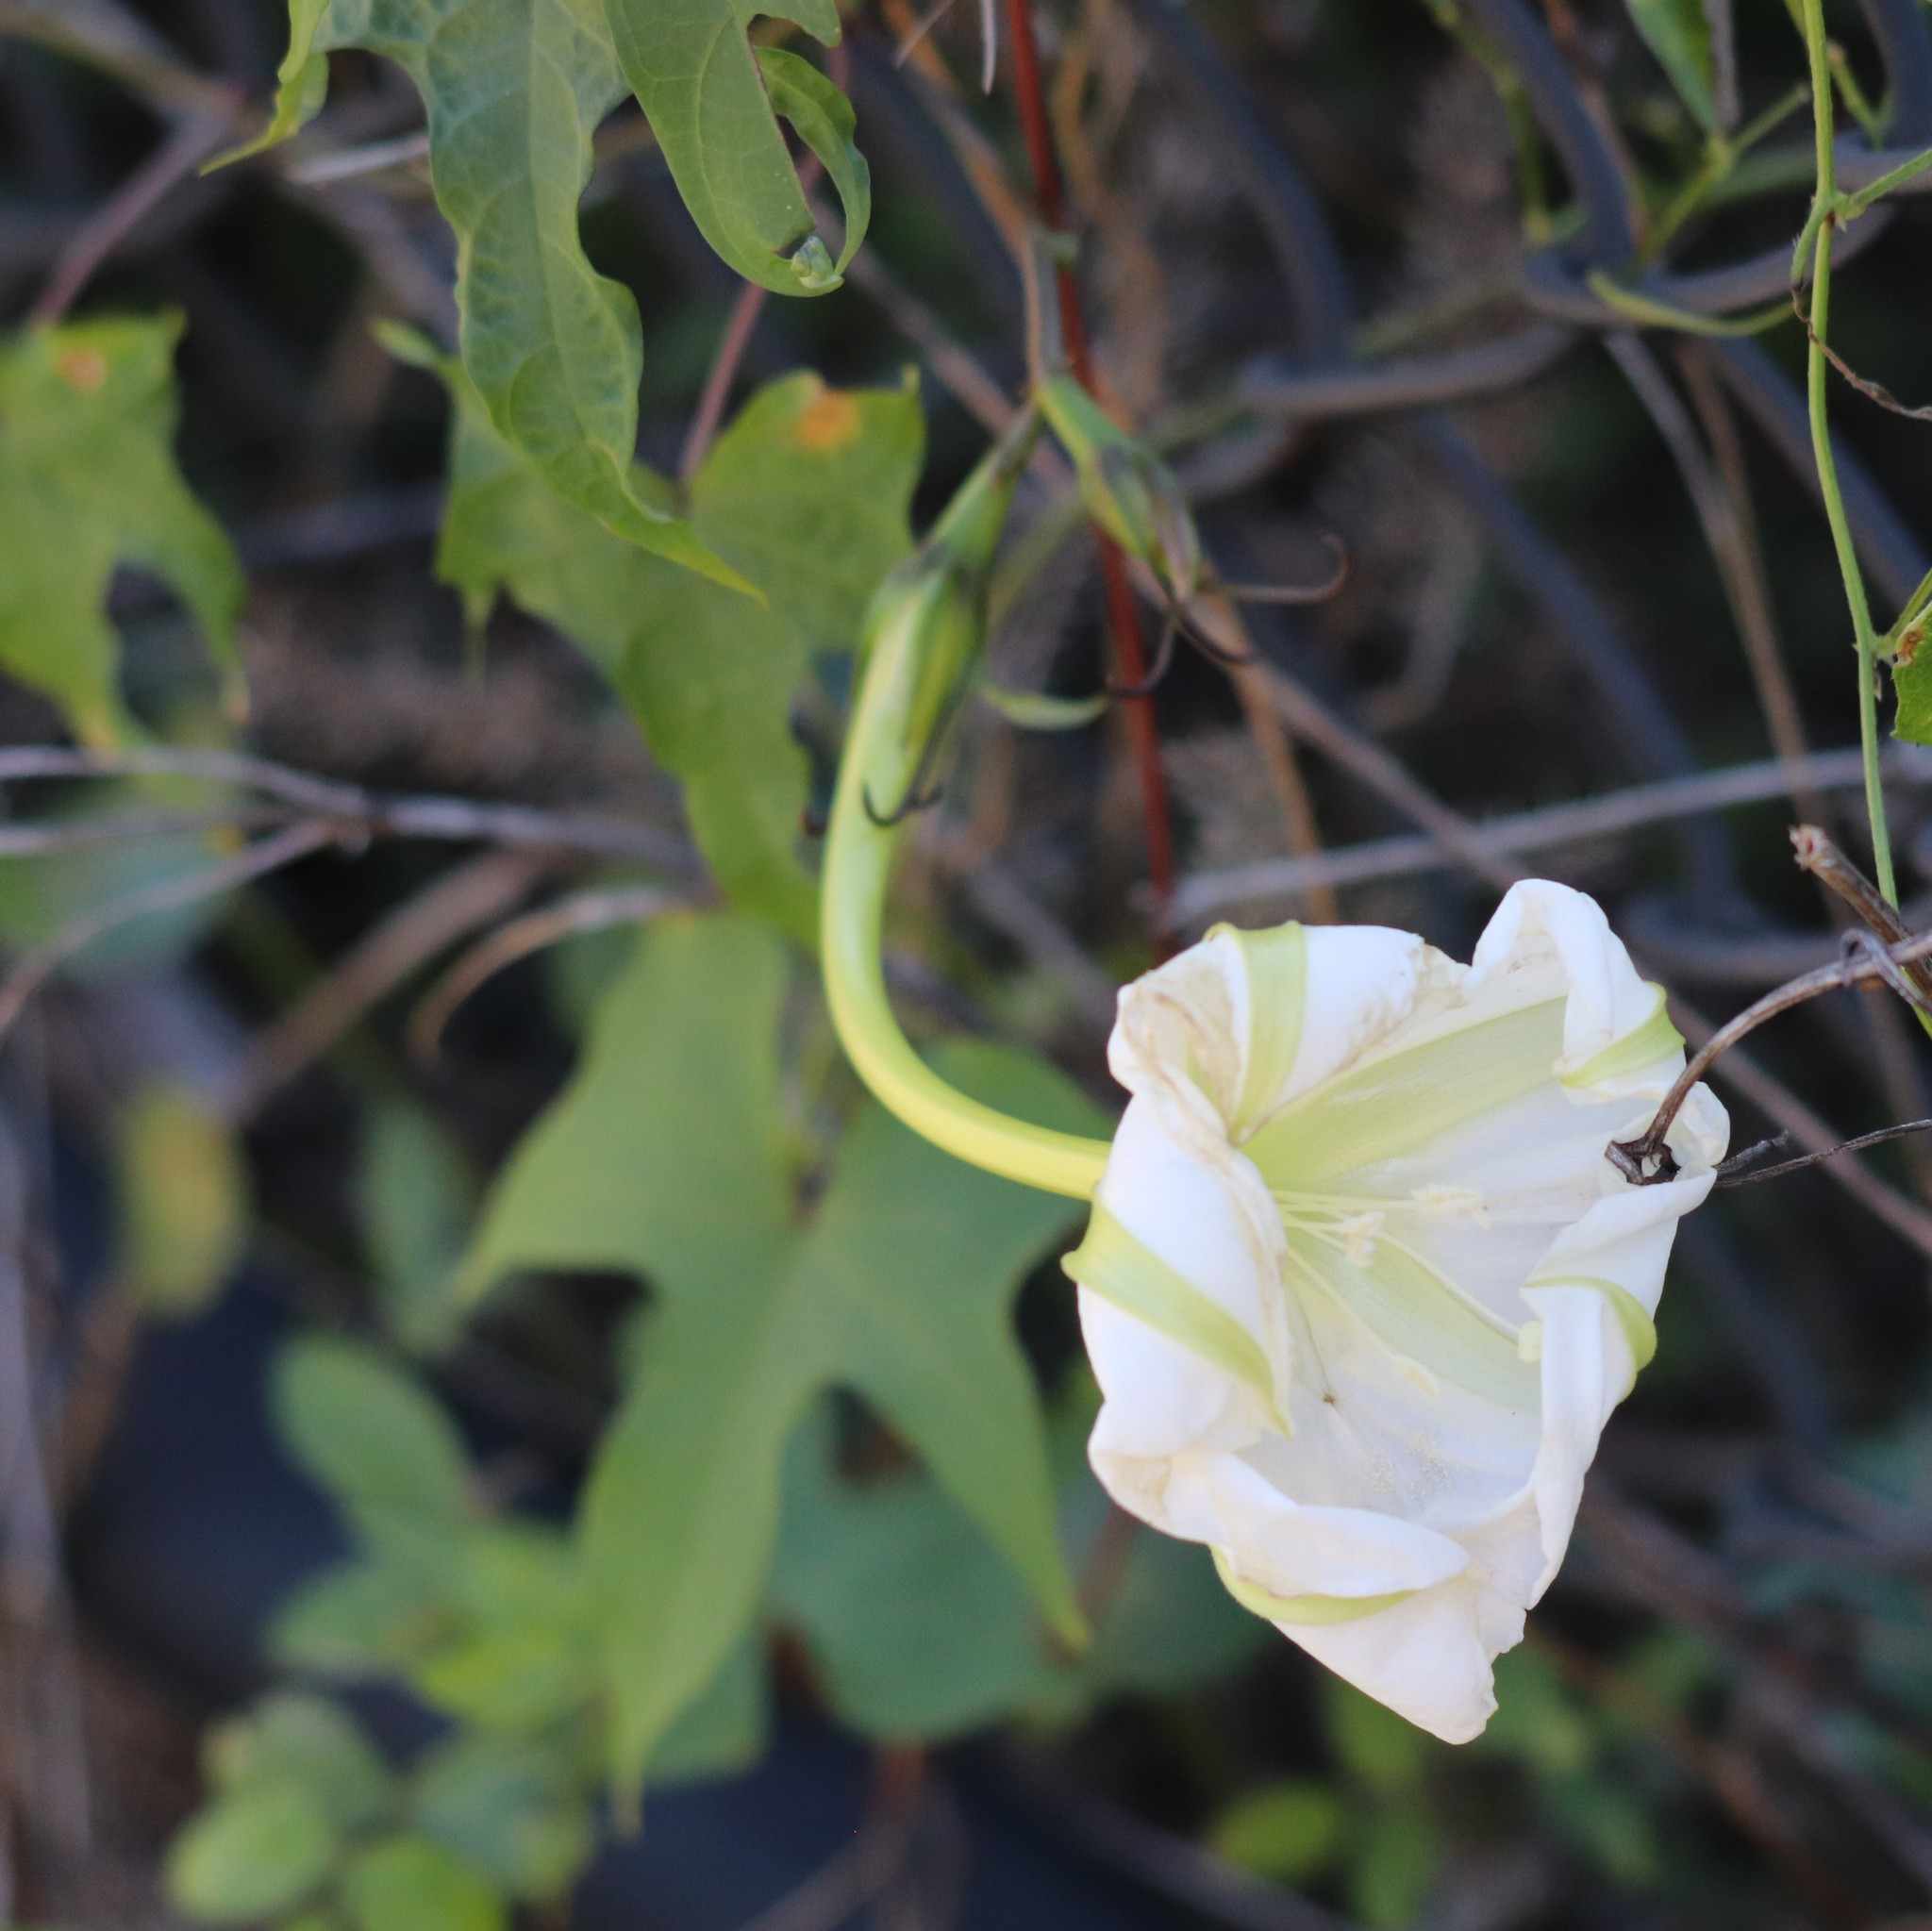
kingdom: Plantae
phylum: Tracheophyta
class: Magnoliopsida
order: Solanales
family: Convolvulaceae
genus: Ipomoea
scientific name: Ipomoea alba
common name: Moonflower
